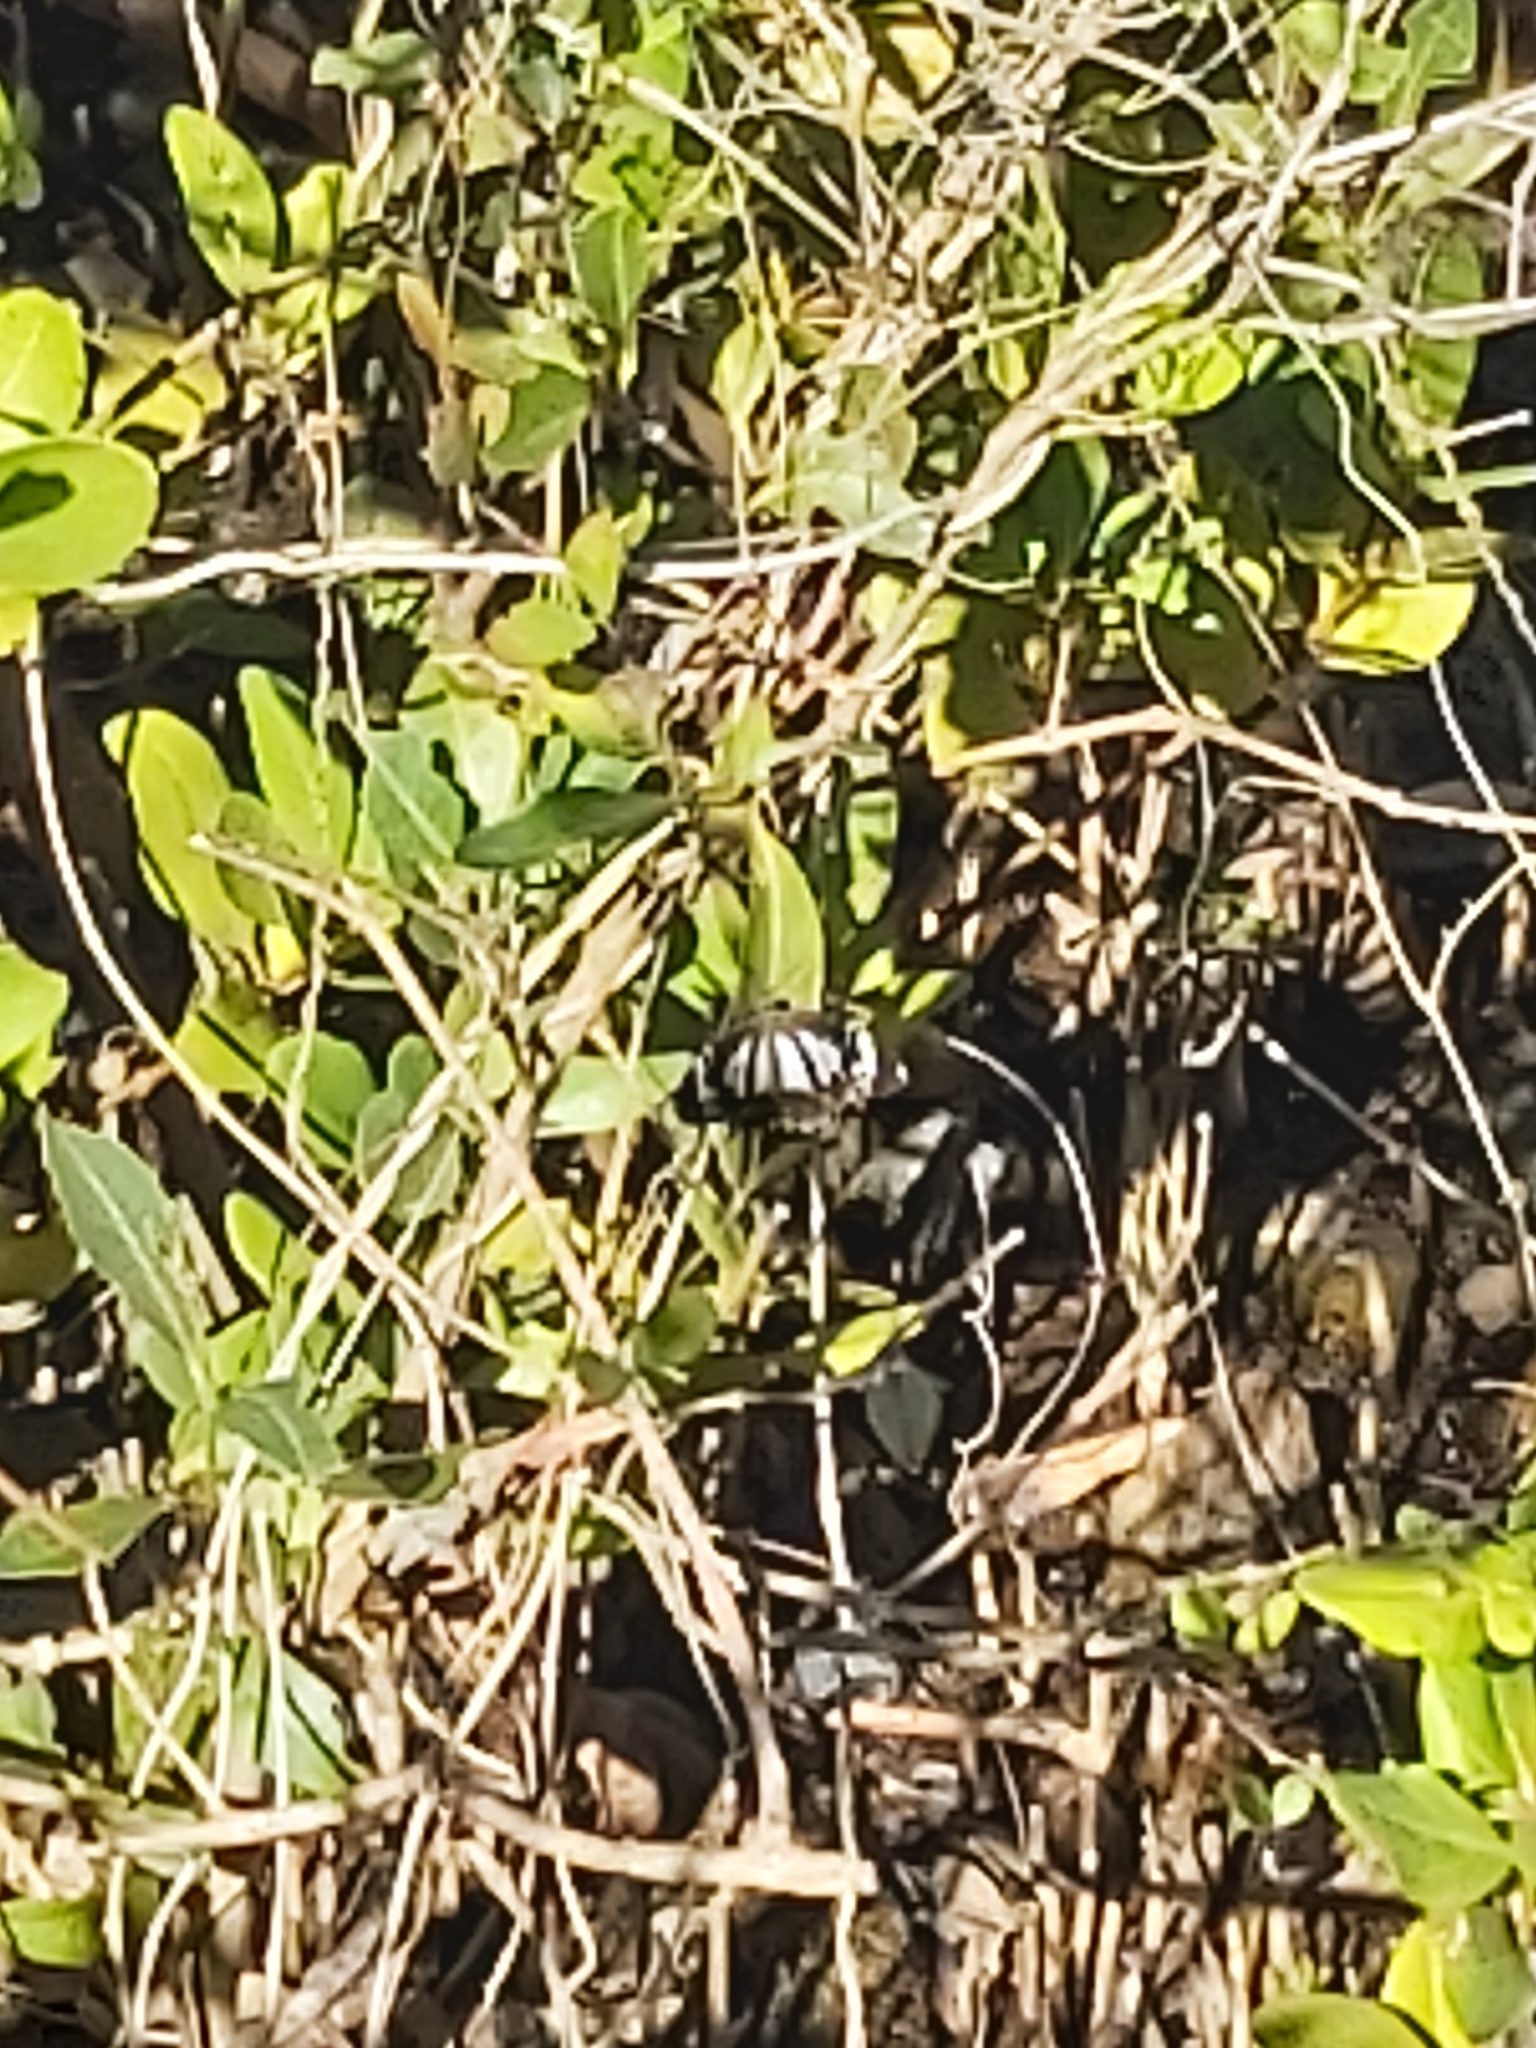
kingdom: Animalia
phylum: Arthropoda
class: Insecta
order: Lepidoptera
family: Nymphalidae
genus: Danaus
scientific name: Danaus affinis
